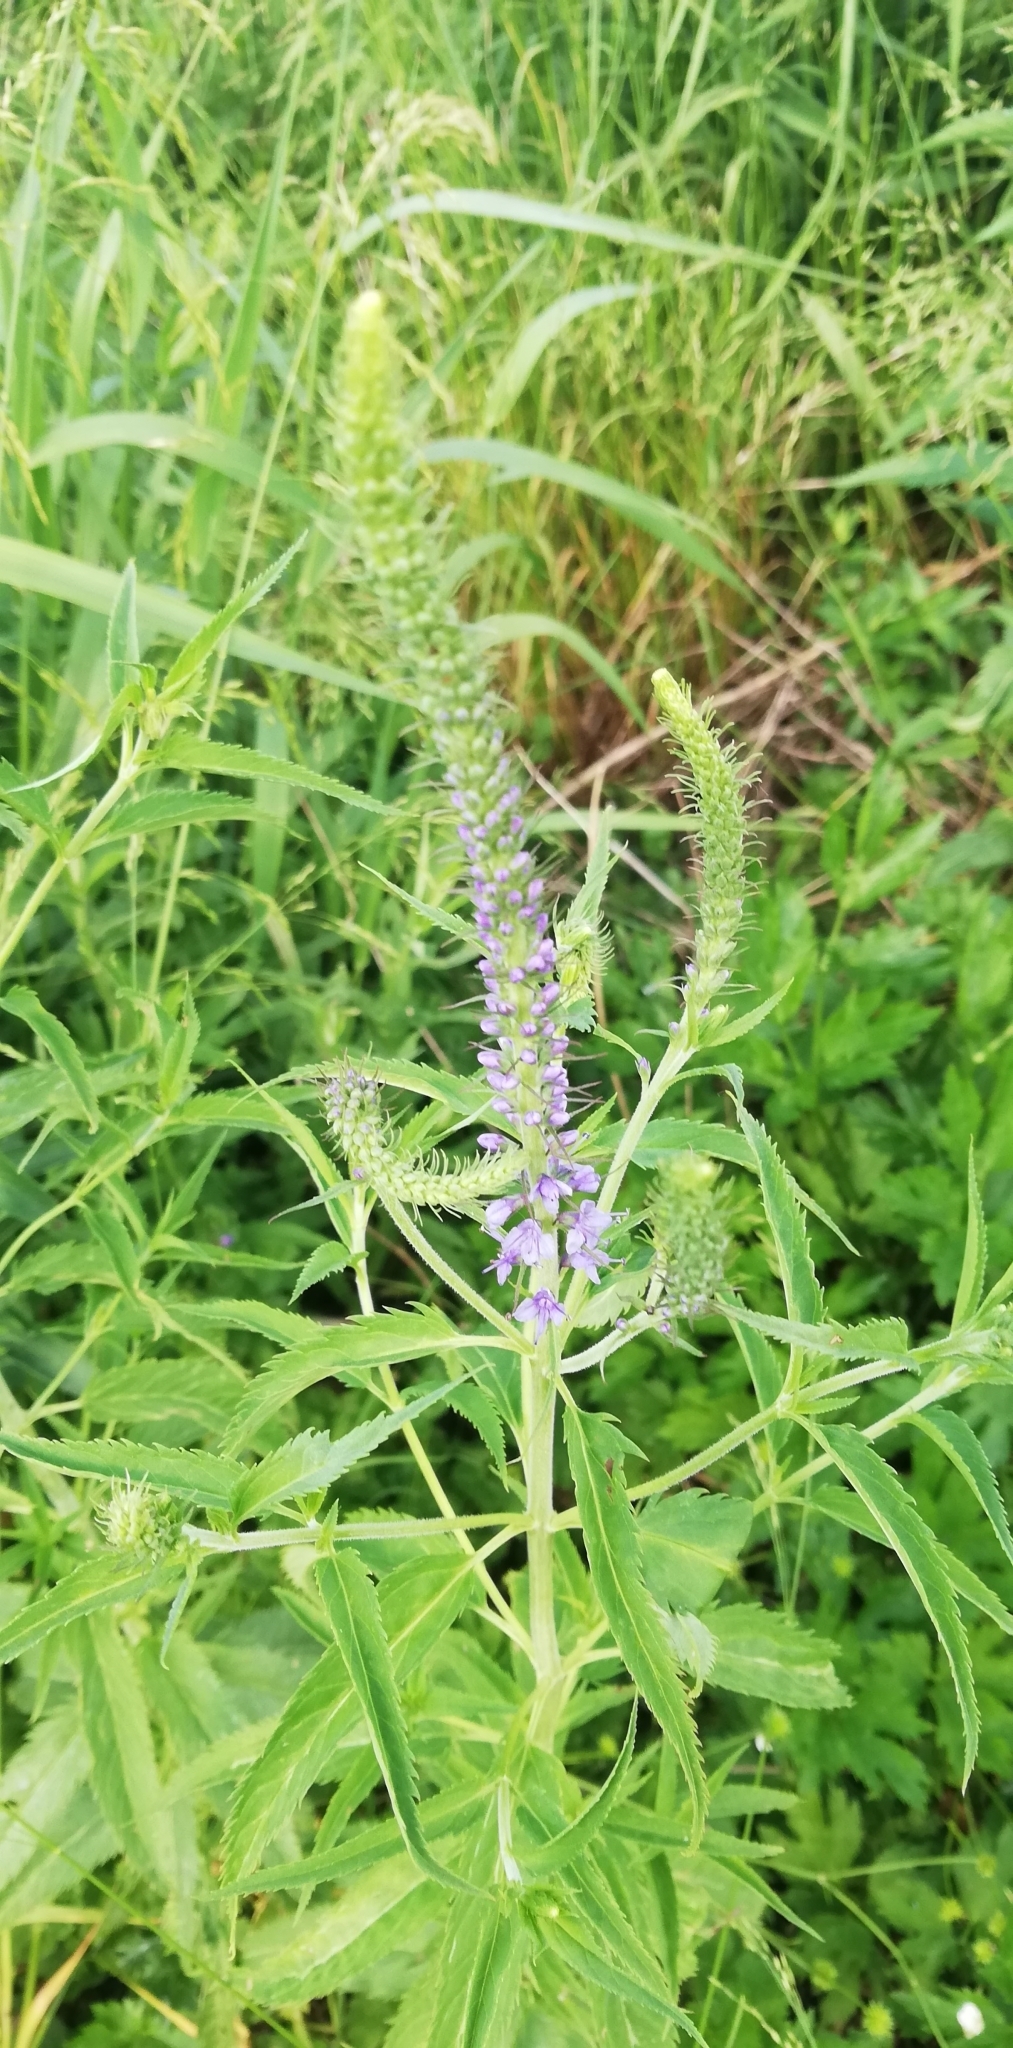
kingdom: Plantae
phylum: Tracheophyta
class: Magnoliopsida
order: Lamiales
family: Plantaginaceae
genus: Veronica
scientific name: Veronica longifolia
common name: Garden speedwell
